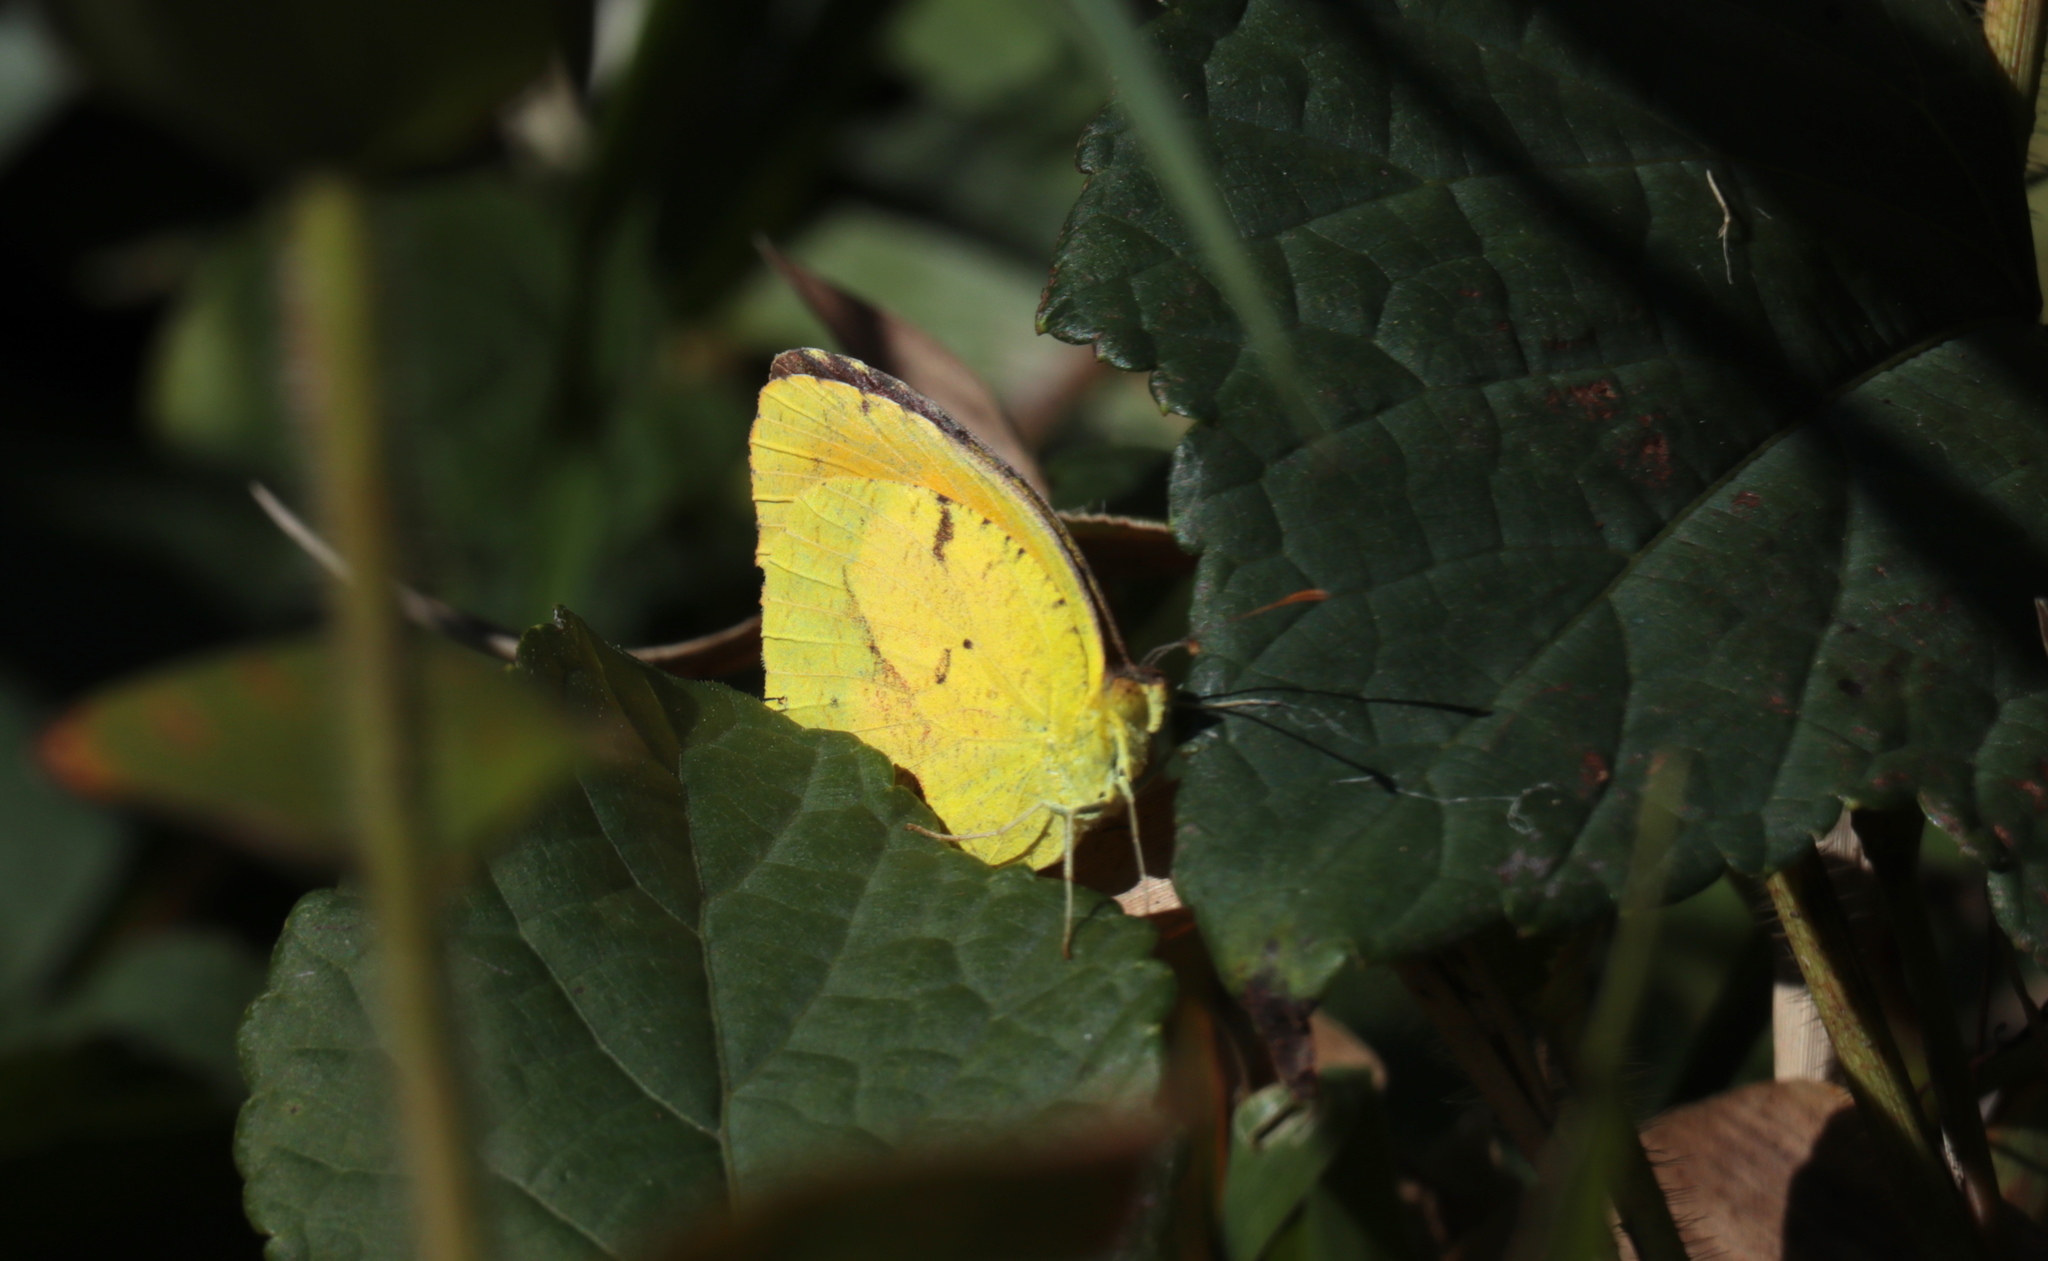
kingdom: Animalia
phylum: Arthropoda
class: Insecta
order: Lepidoptera
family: Pieridae
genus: Abaeis
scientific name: Abaeis nicippe
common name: Sleepy orange
